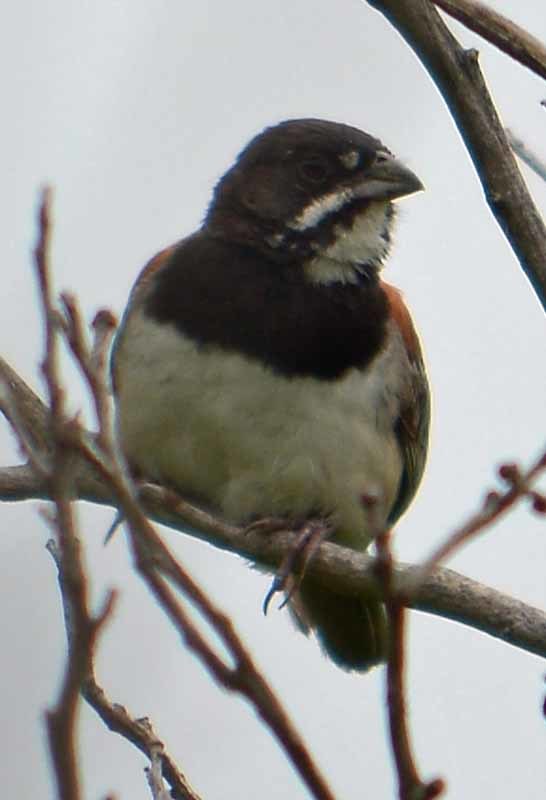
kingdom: Animalia
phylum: Chordata
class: Aves
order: Passeriformes
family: Passerellidae
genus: Peucaea
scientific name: Peucaea humeralis
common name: Black-chested sparrow
